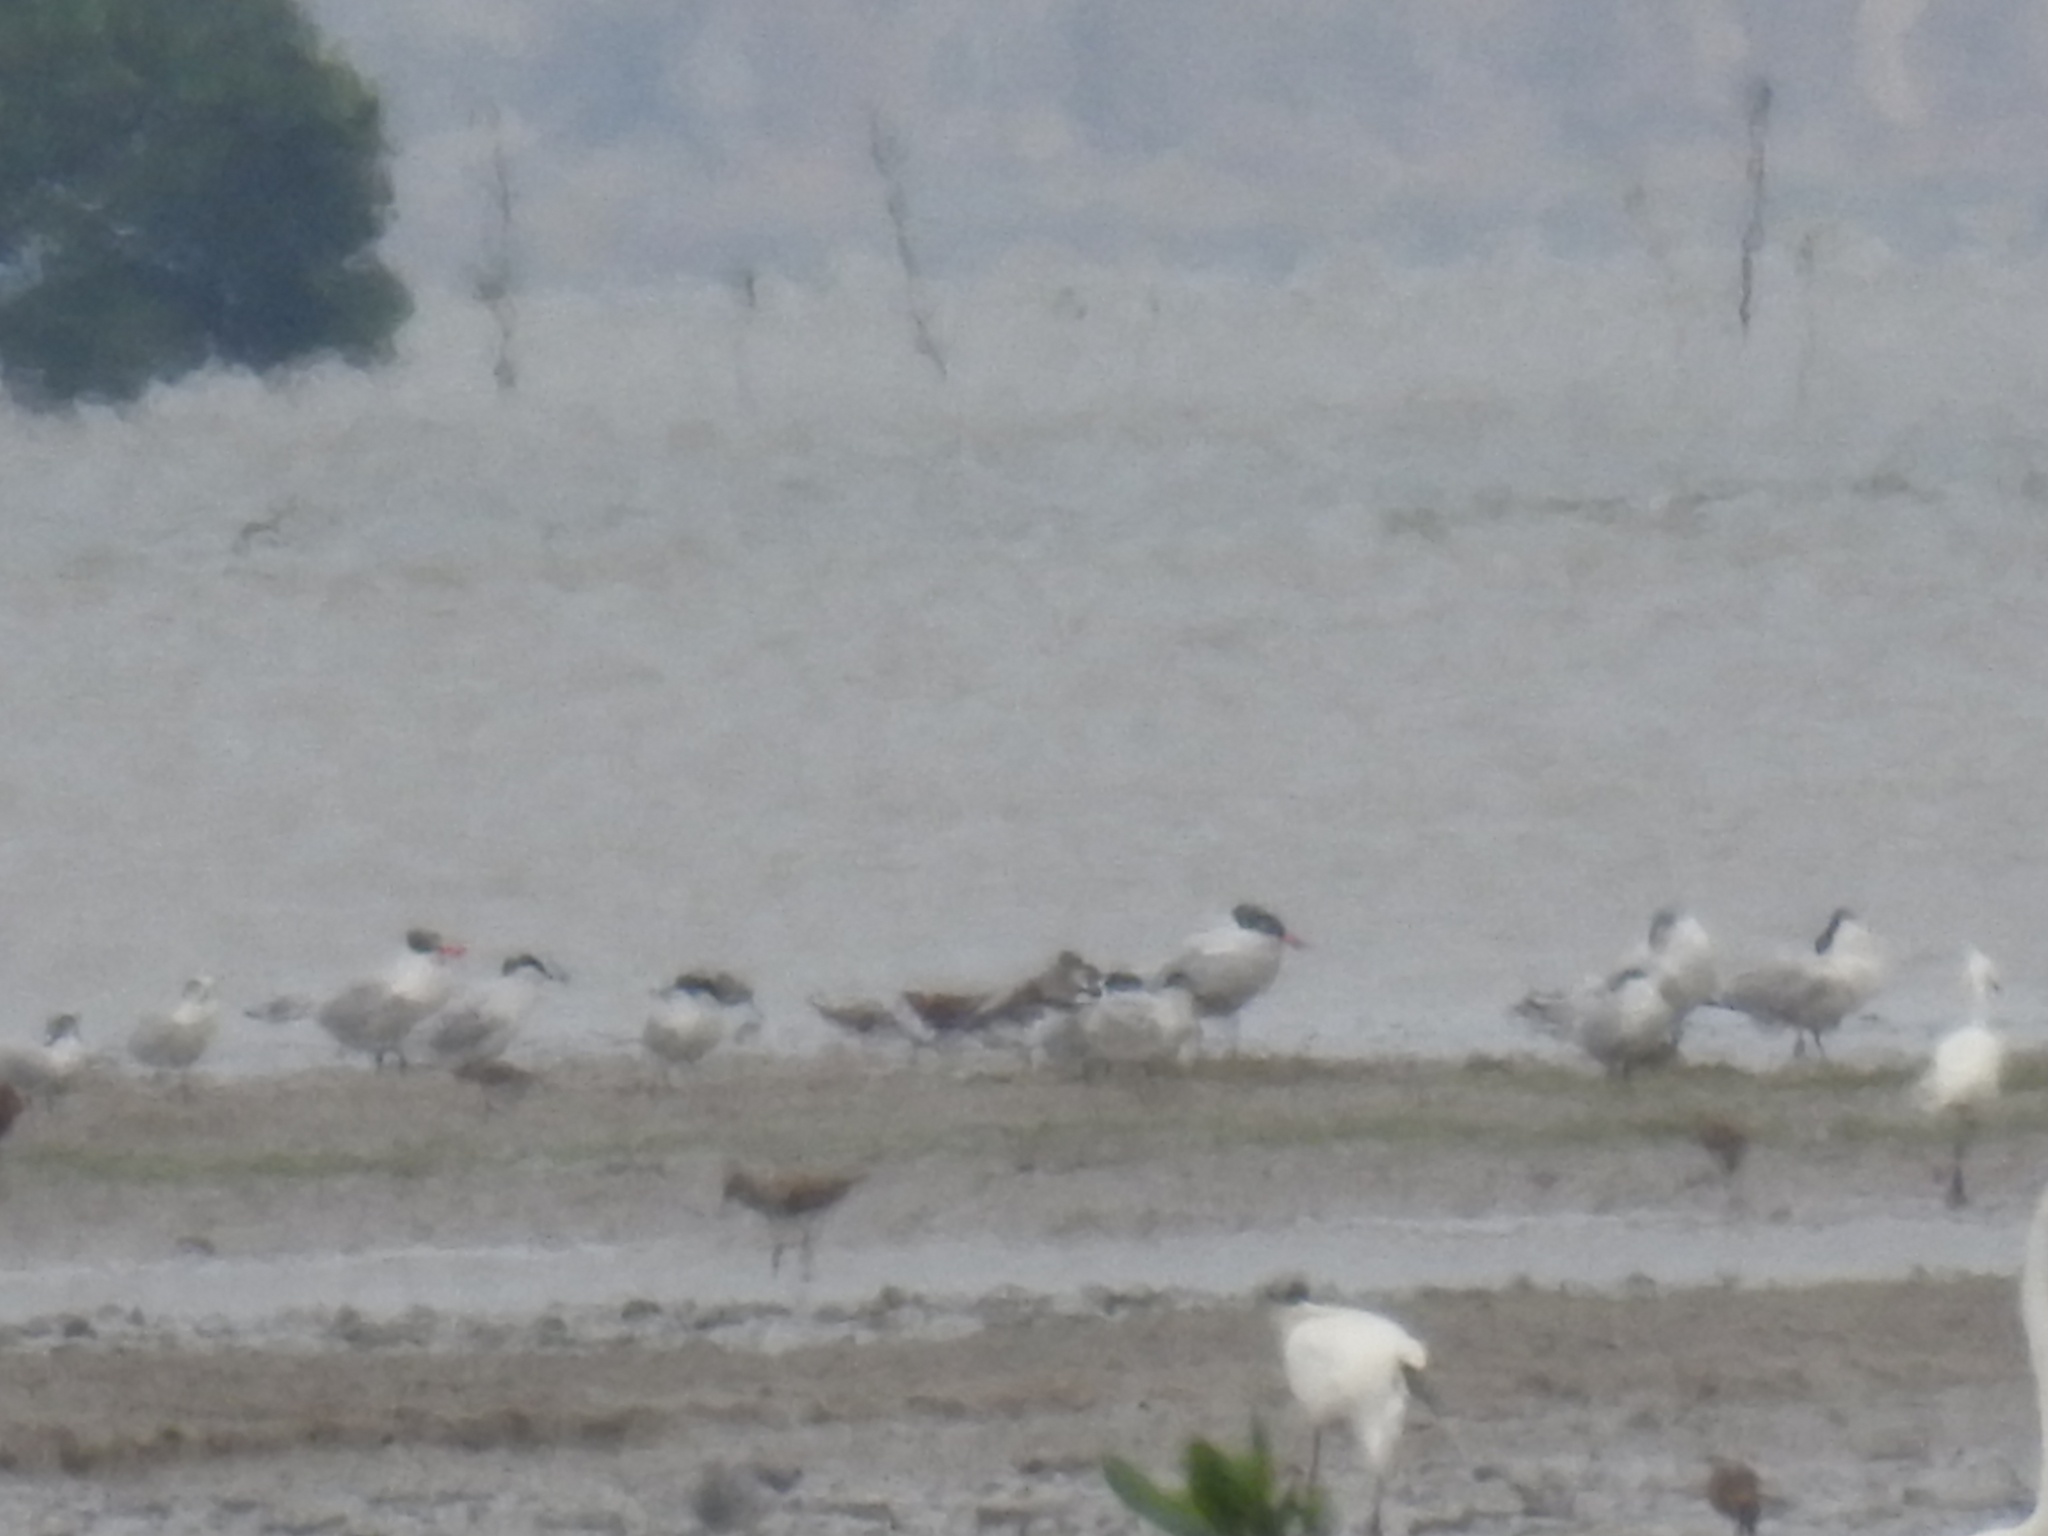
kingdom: Animalia
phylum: Chordata
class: Aves
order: Charadriiformes
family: Laridae
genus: Hydroprogne
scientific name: Hydroprogne caspia
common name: Caspian tern
